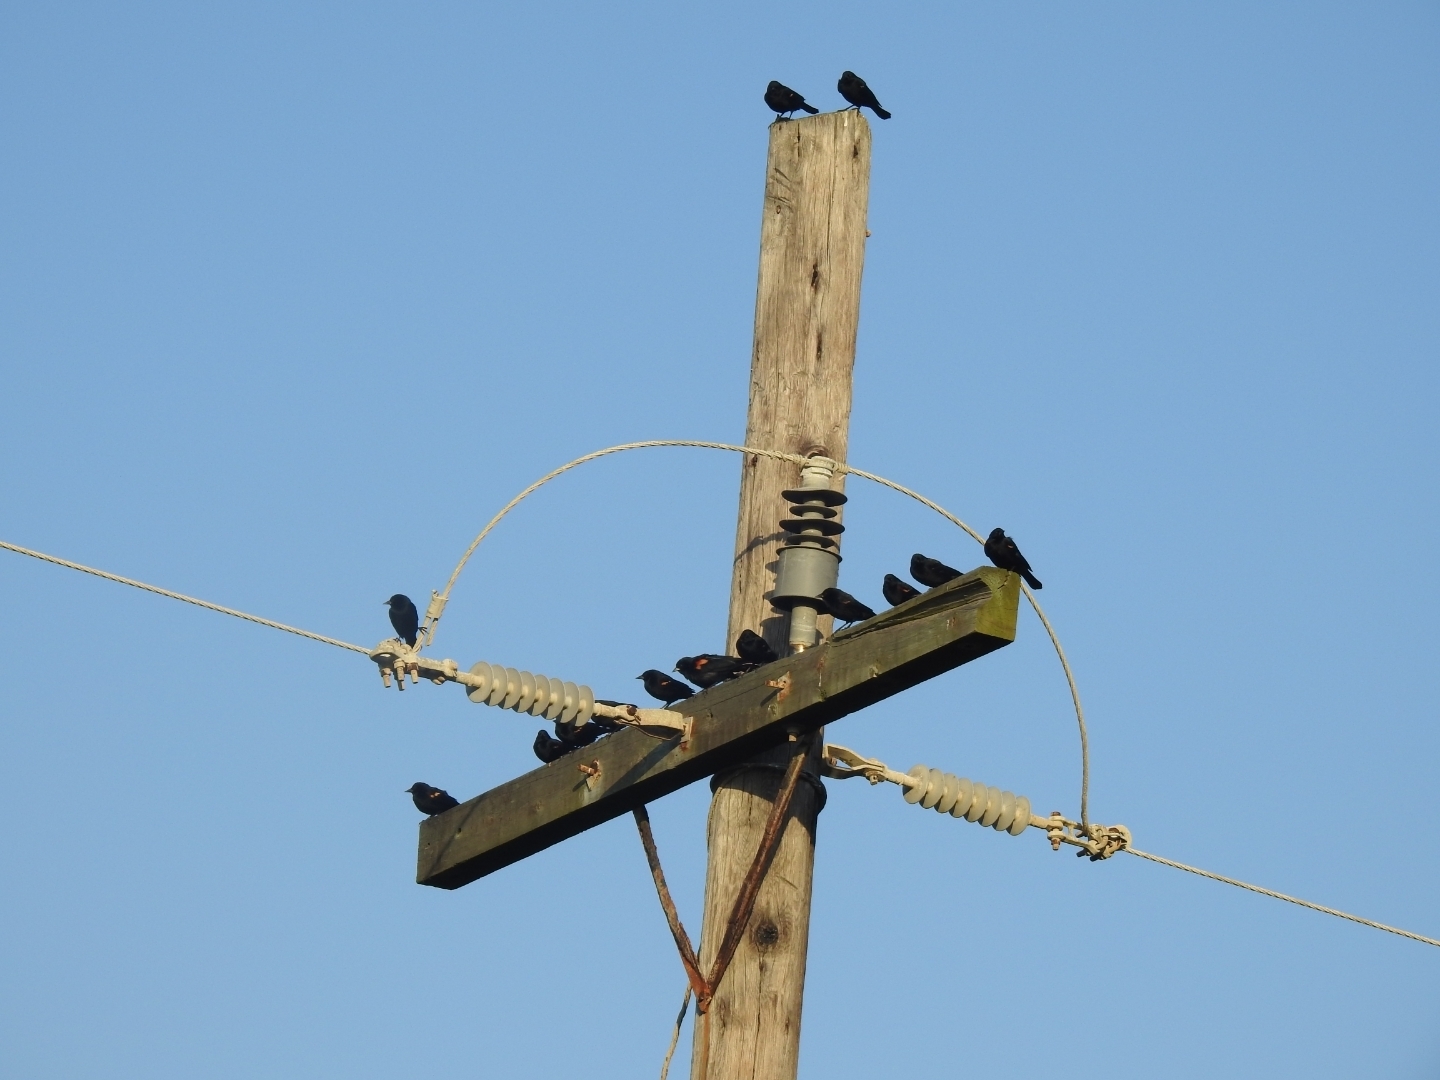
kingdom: Animalia
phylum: Chordata
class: Aves
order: Passeriformes
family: Icteridae
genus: Agelaius
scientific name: Agelaius phoeniceus
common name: Red-winged blackbird
